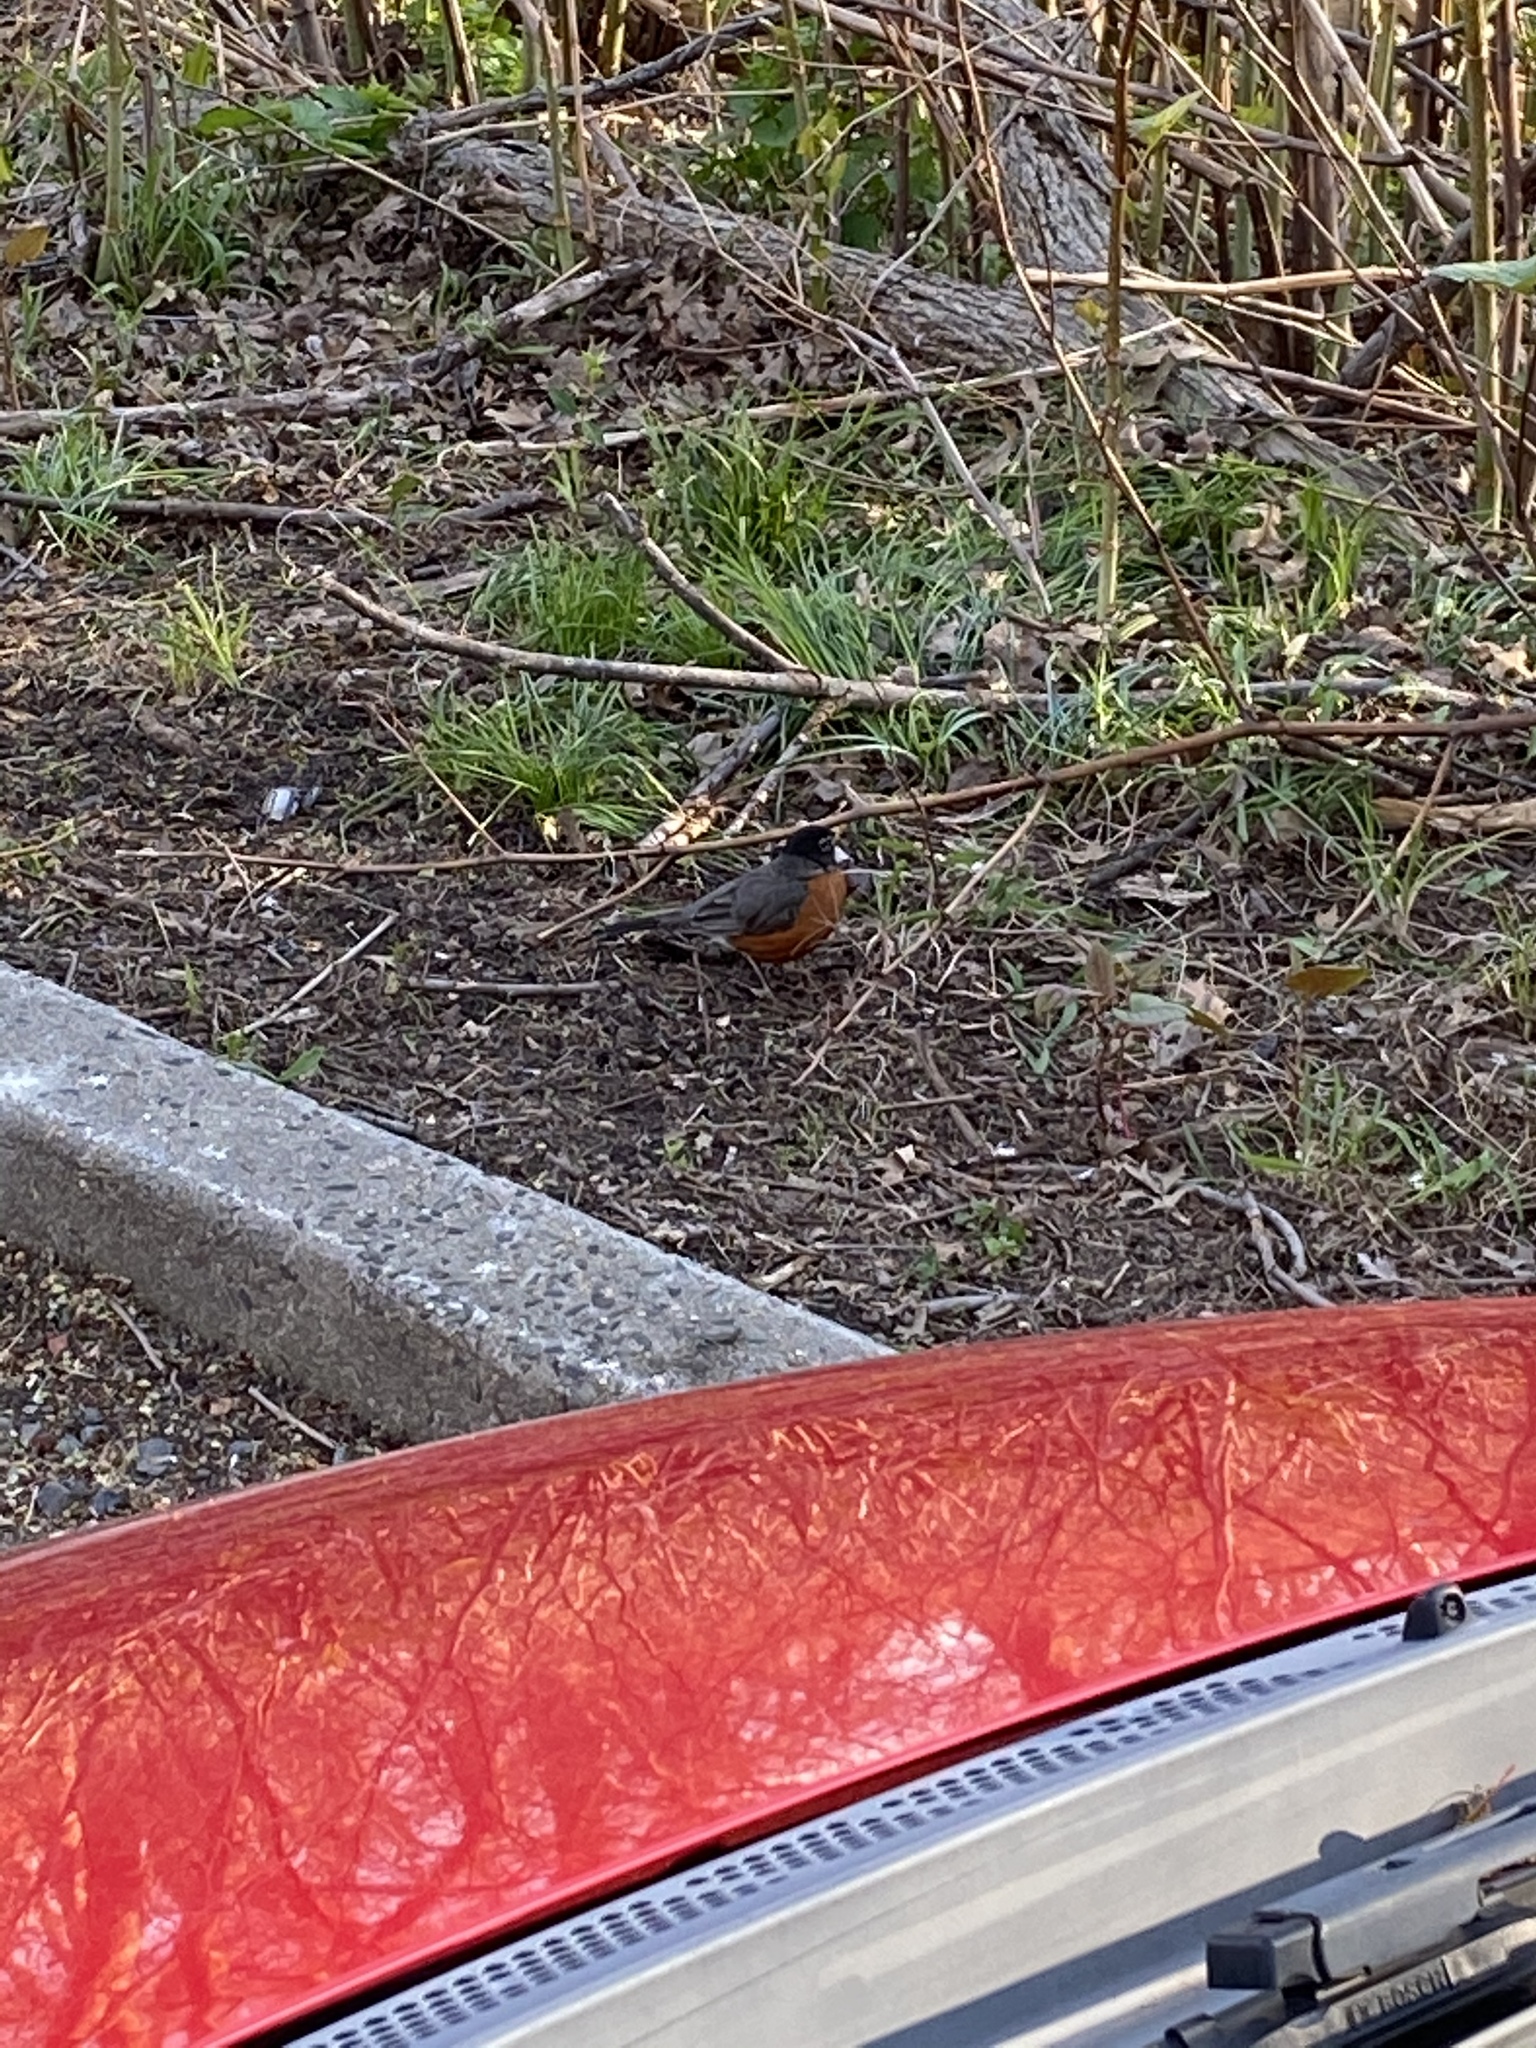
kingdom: Animalia
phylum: Chordata
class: Aves
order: Passeriformes
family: Turdidae
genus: Turdus
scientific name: Turdus migratorius
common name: American robin
